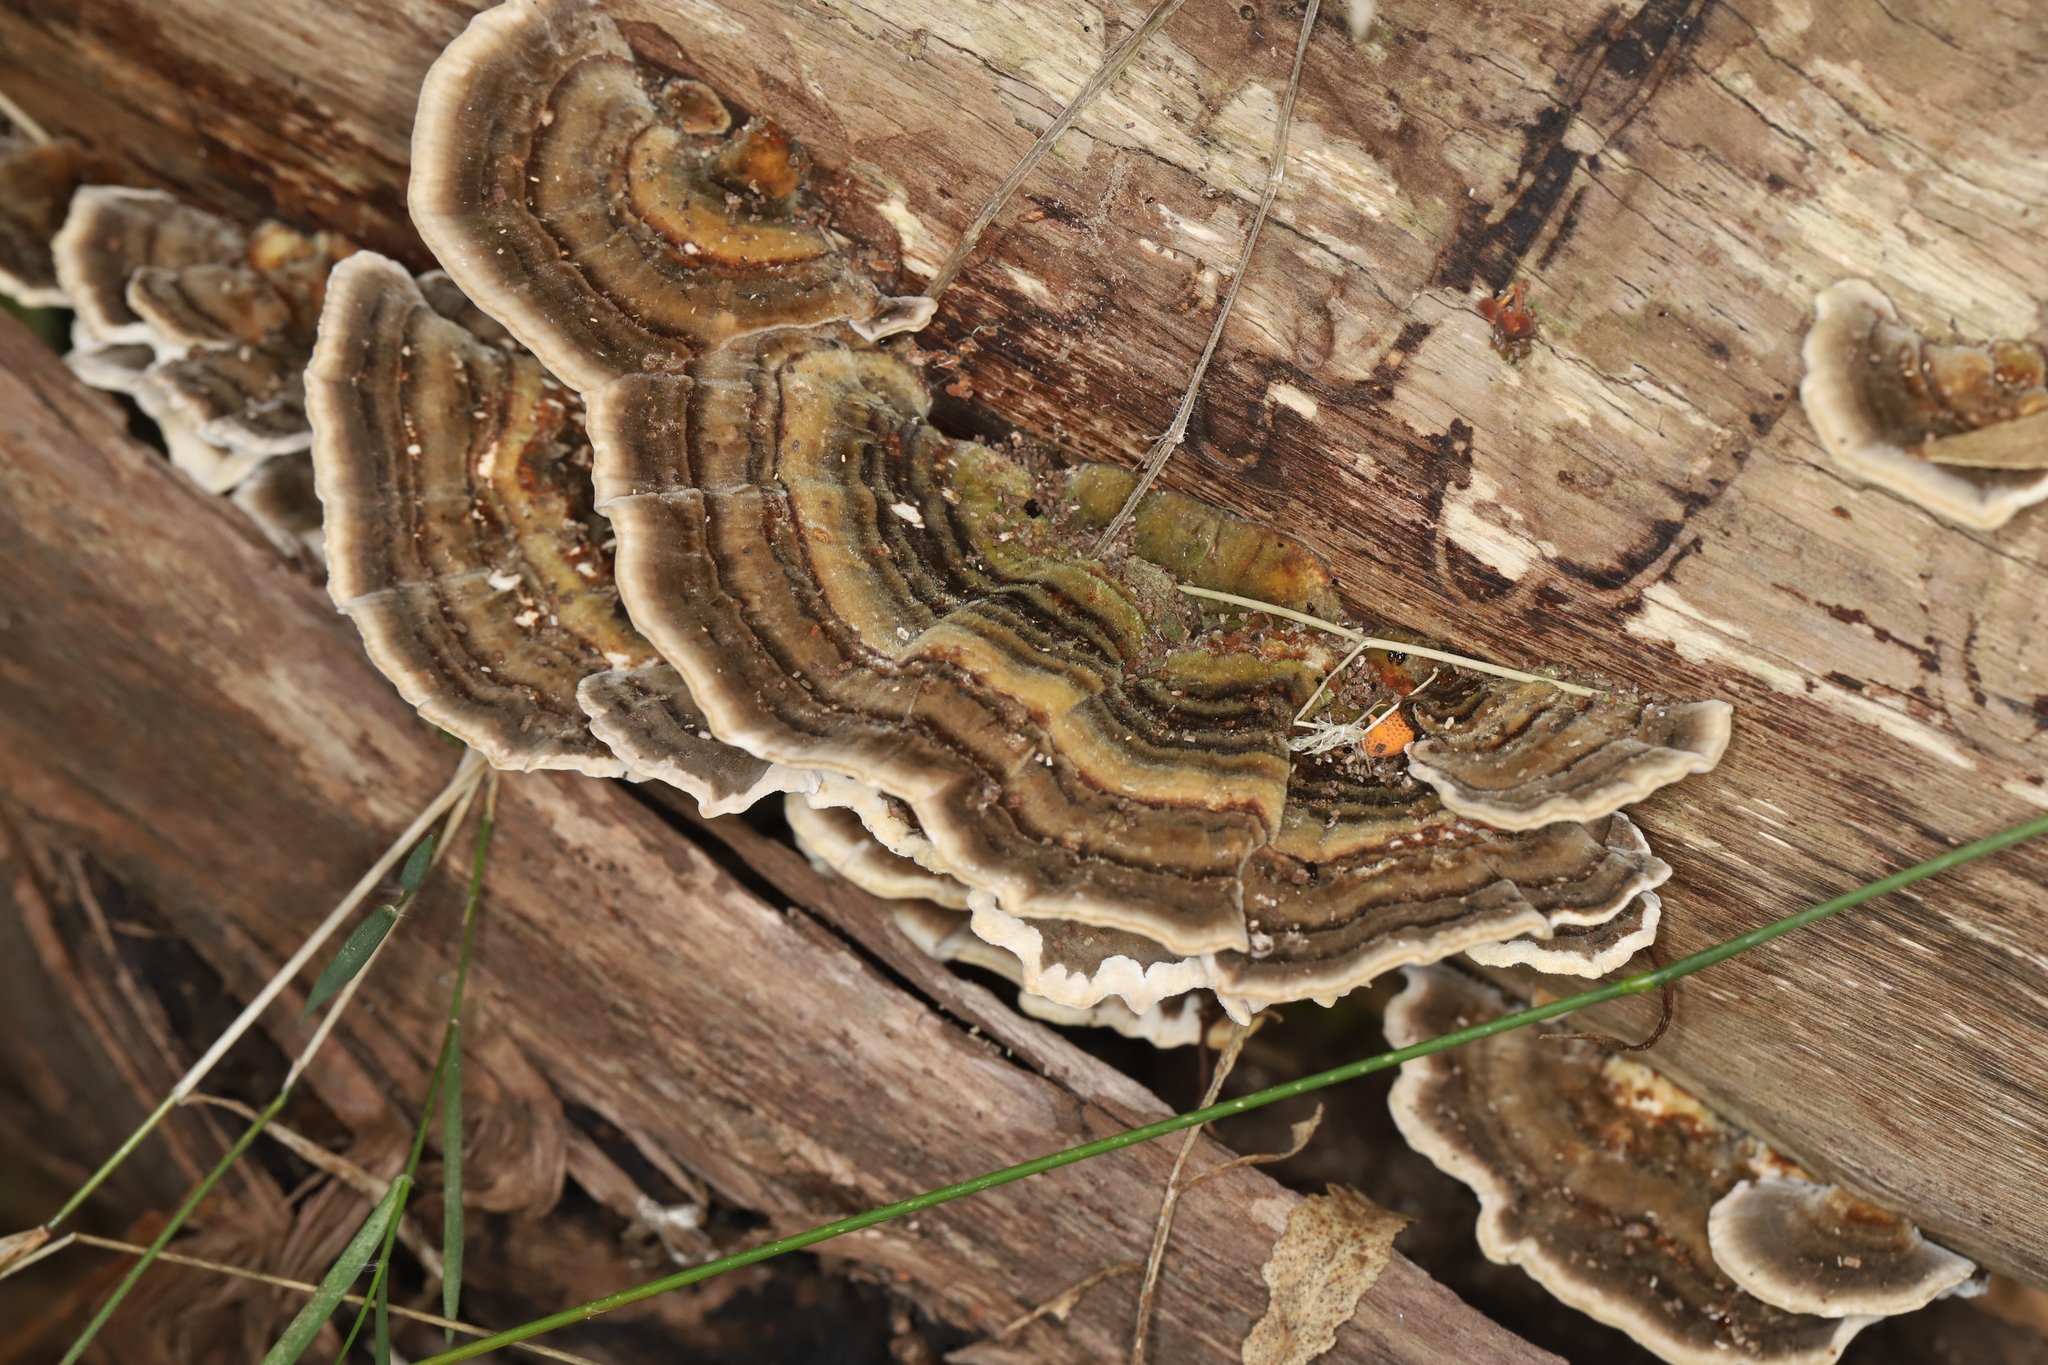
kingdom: Fungi
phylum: Basidiomycota
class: Agaricomycetes
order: Polyporales
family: Polyporaceae
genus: Trametes
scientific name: Trametes versicolor
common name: Turkeytail
